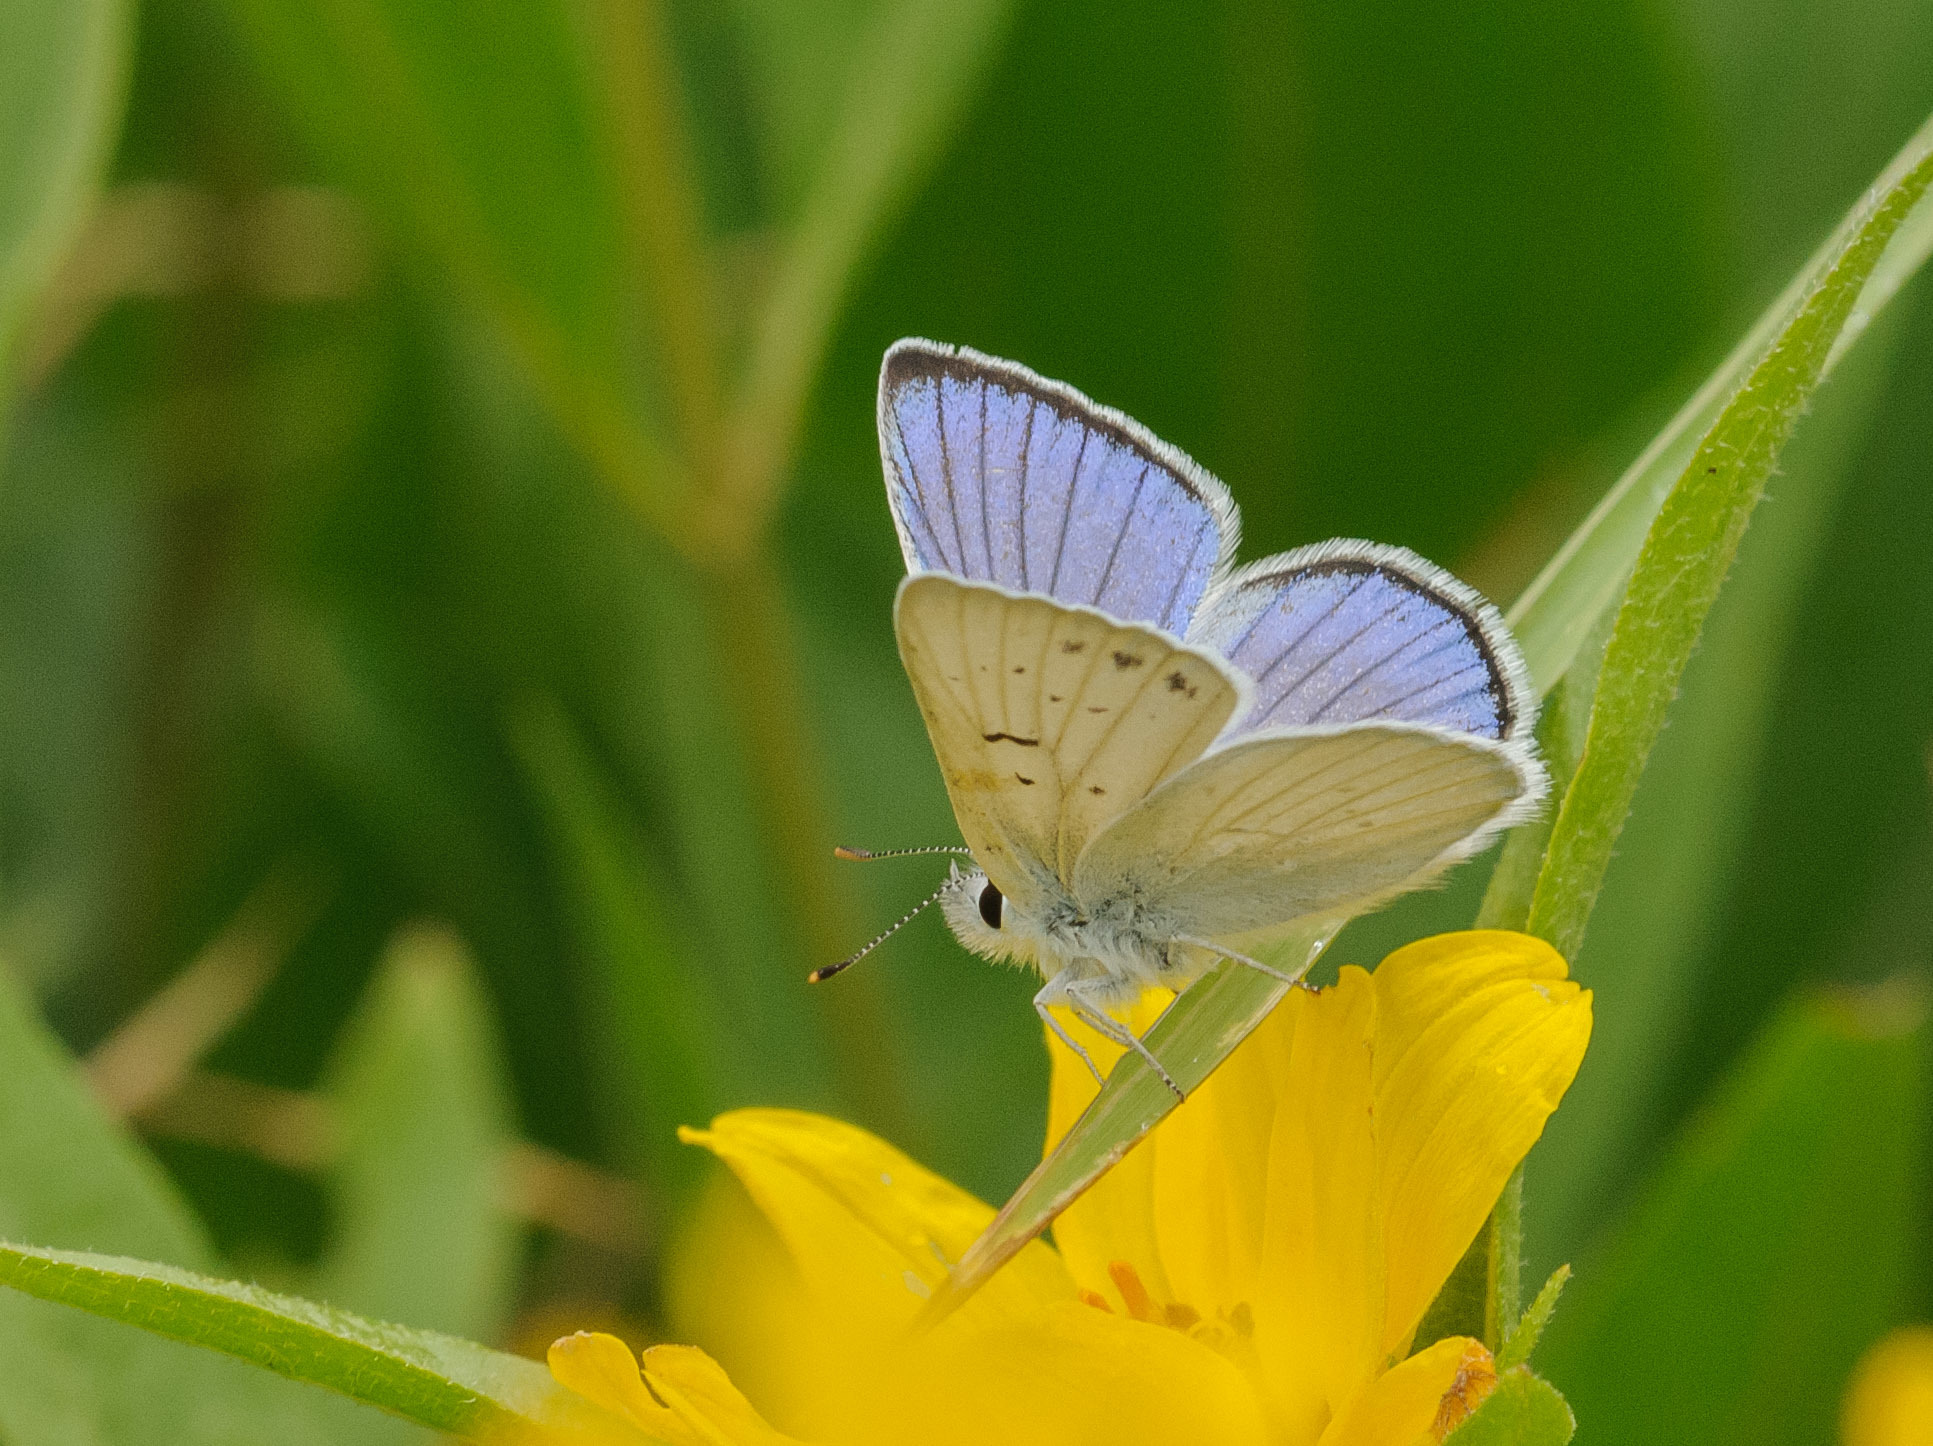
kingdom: Animalia
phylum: Arthropoda
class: Insecta
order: Lepidoptera
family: Lycaenidae
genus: Tharsalea
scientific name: Tharsalea heteronea
